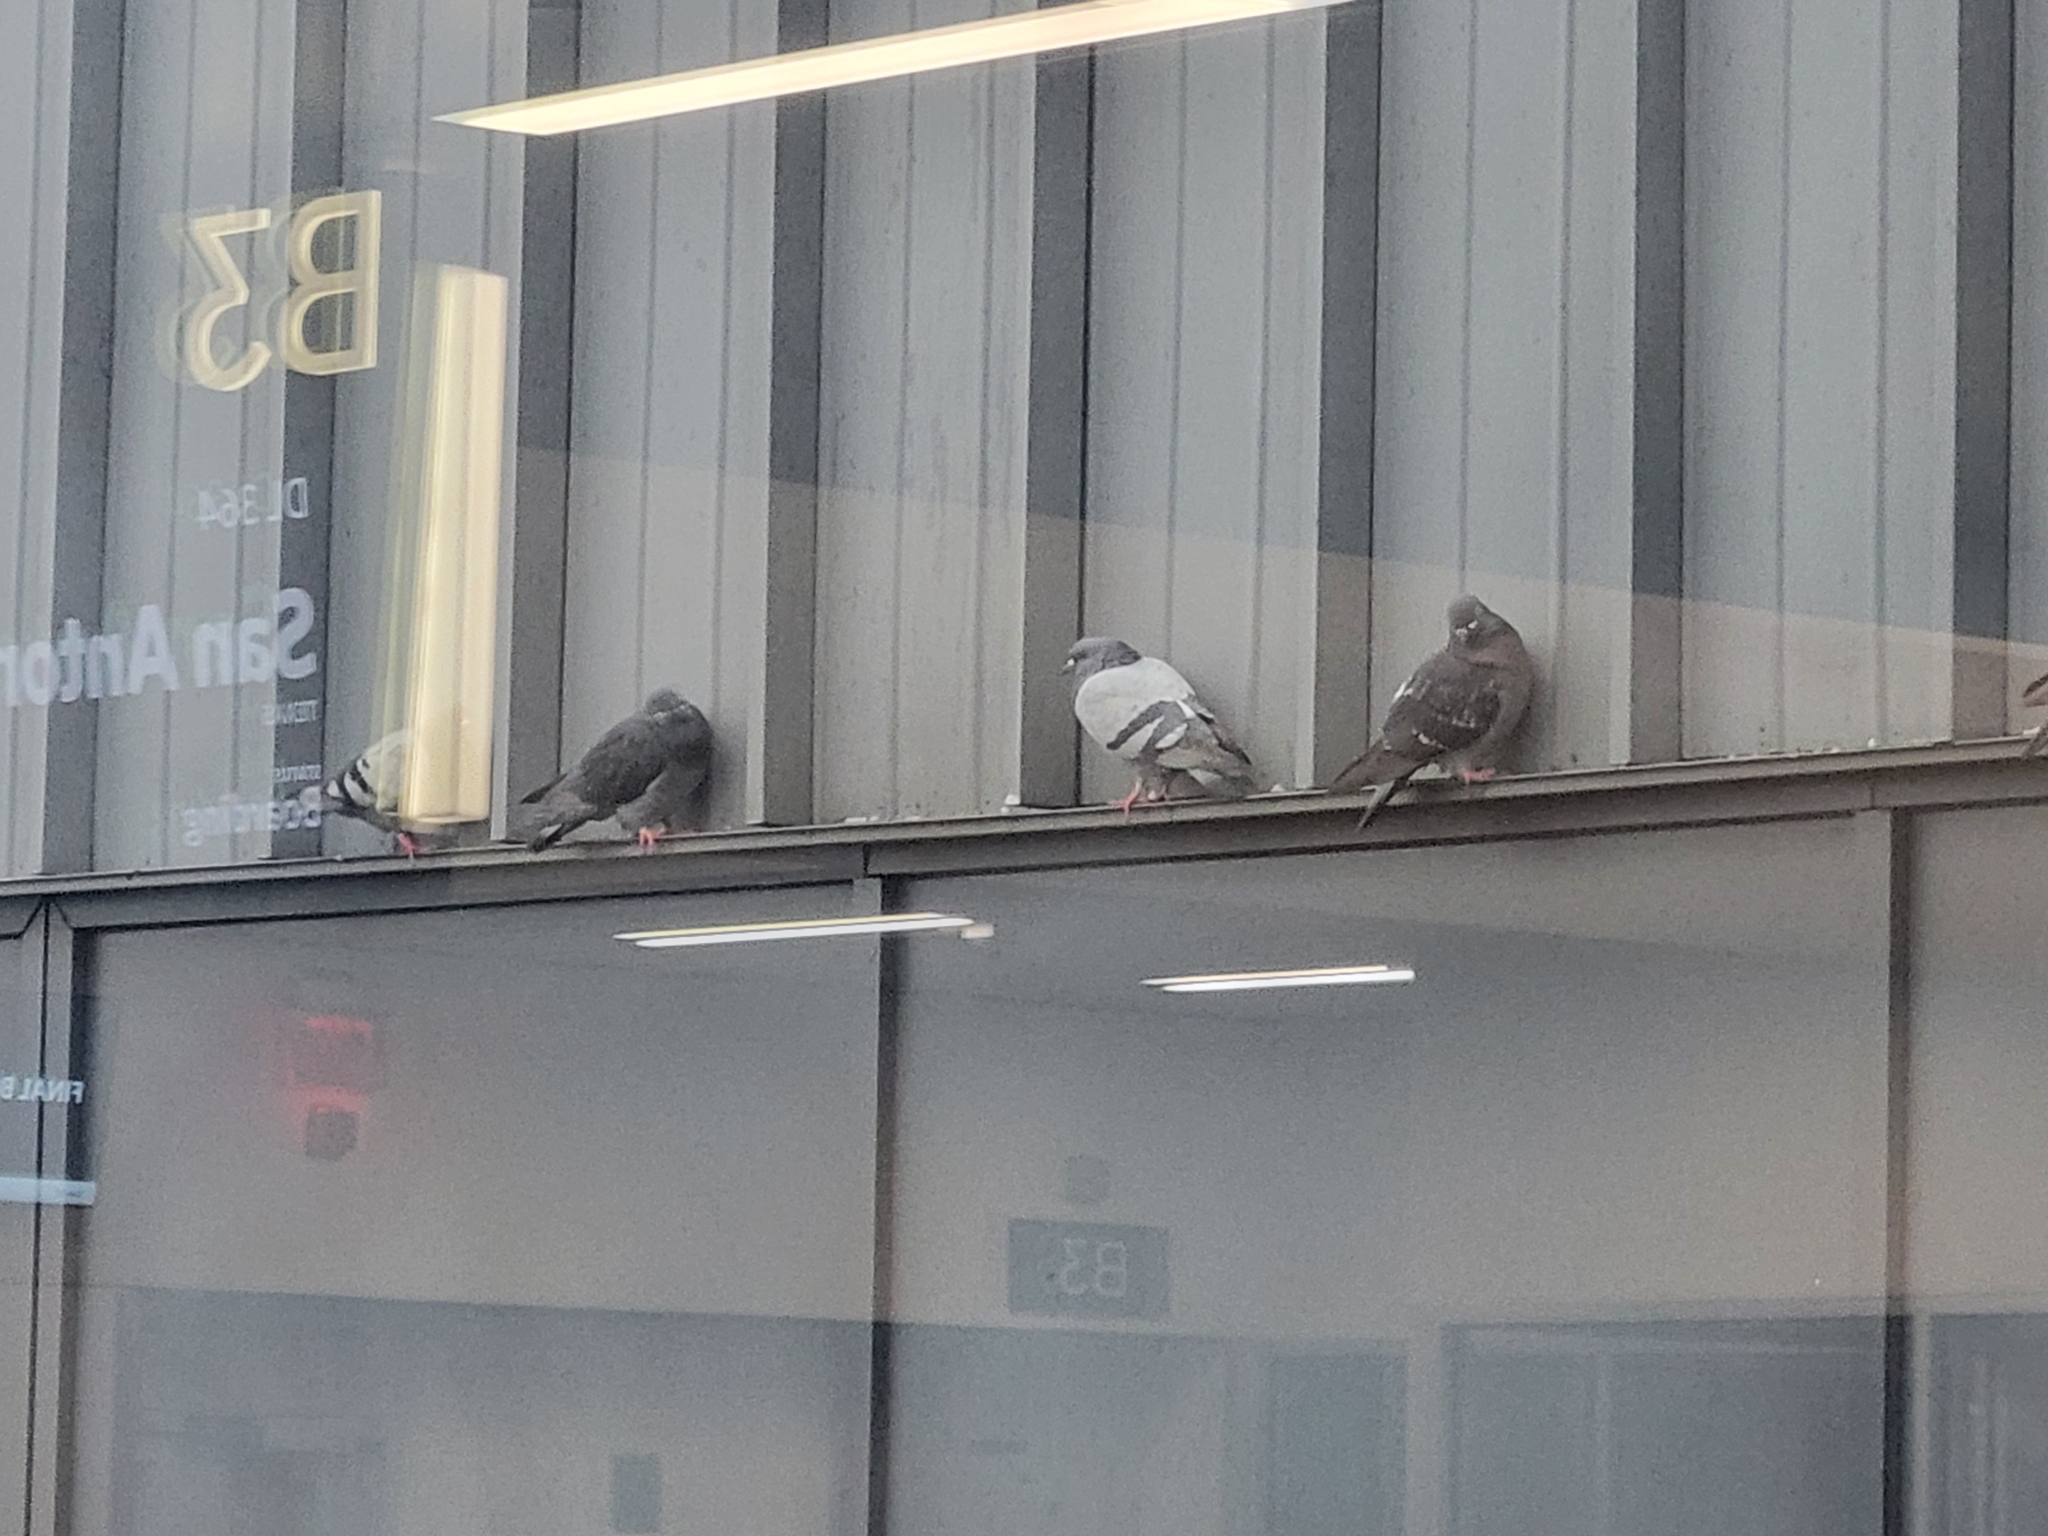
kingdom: Animalia
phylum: Chordata
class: Aves
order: Columbiformes
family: Columbidae
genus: Columba
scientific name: Columba livia
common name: Rock pigeon
